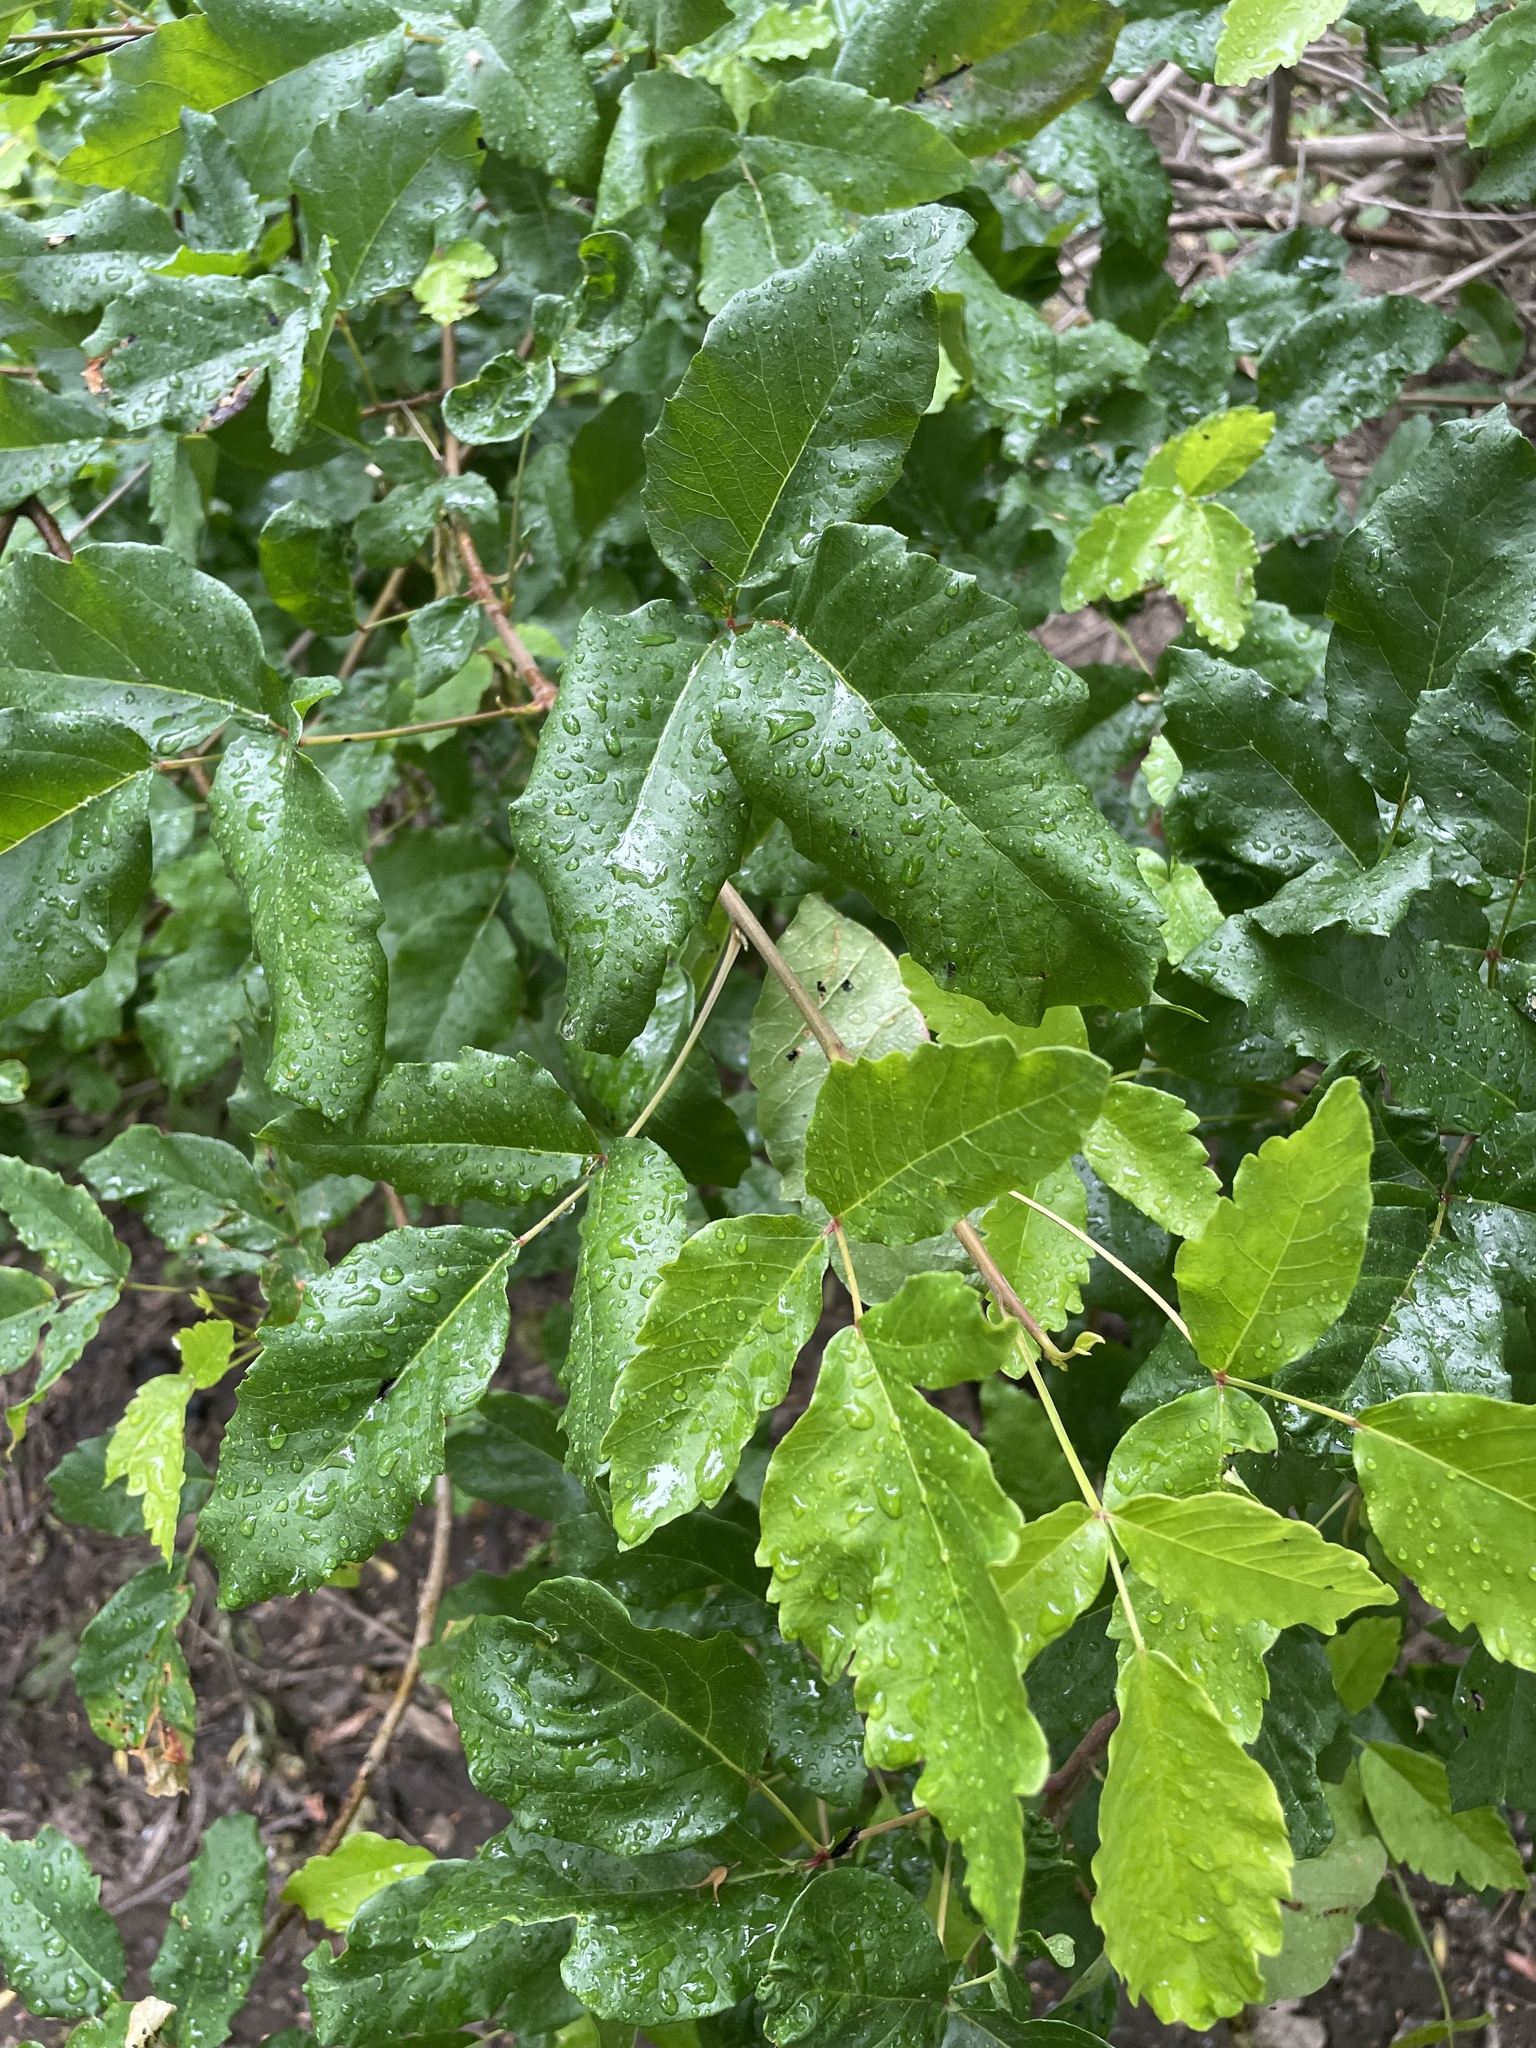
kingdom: Plantae
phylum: Tracheophyta
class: Magnoliopsida
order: Sapindales
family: Anacardiaceae
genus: Toxicodendron
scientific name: Toxicodendron diversilobum
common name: Pacific poison-oak
